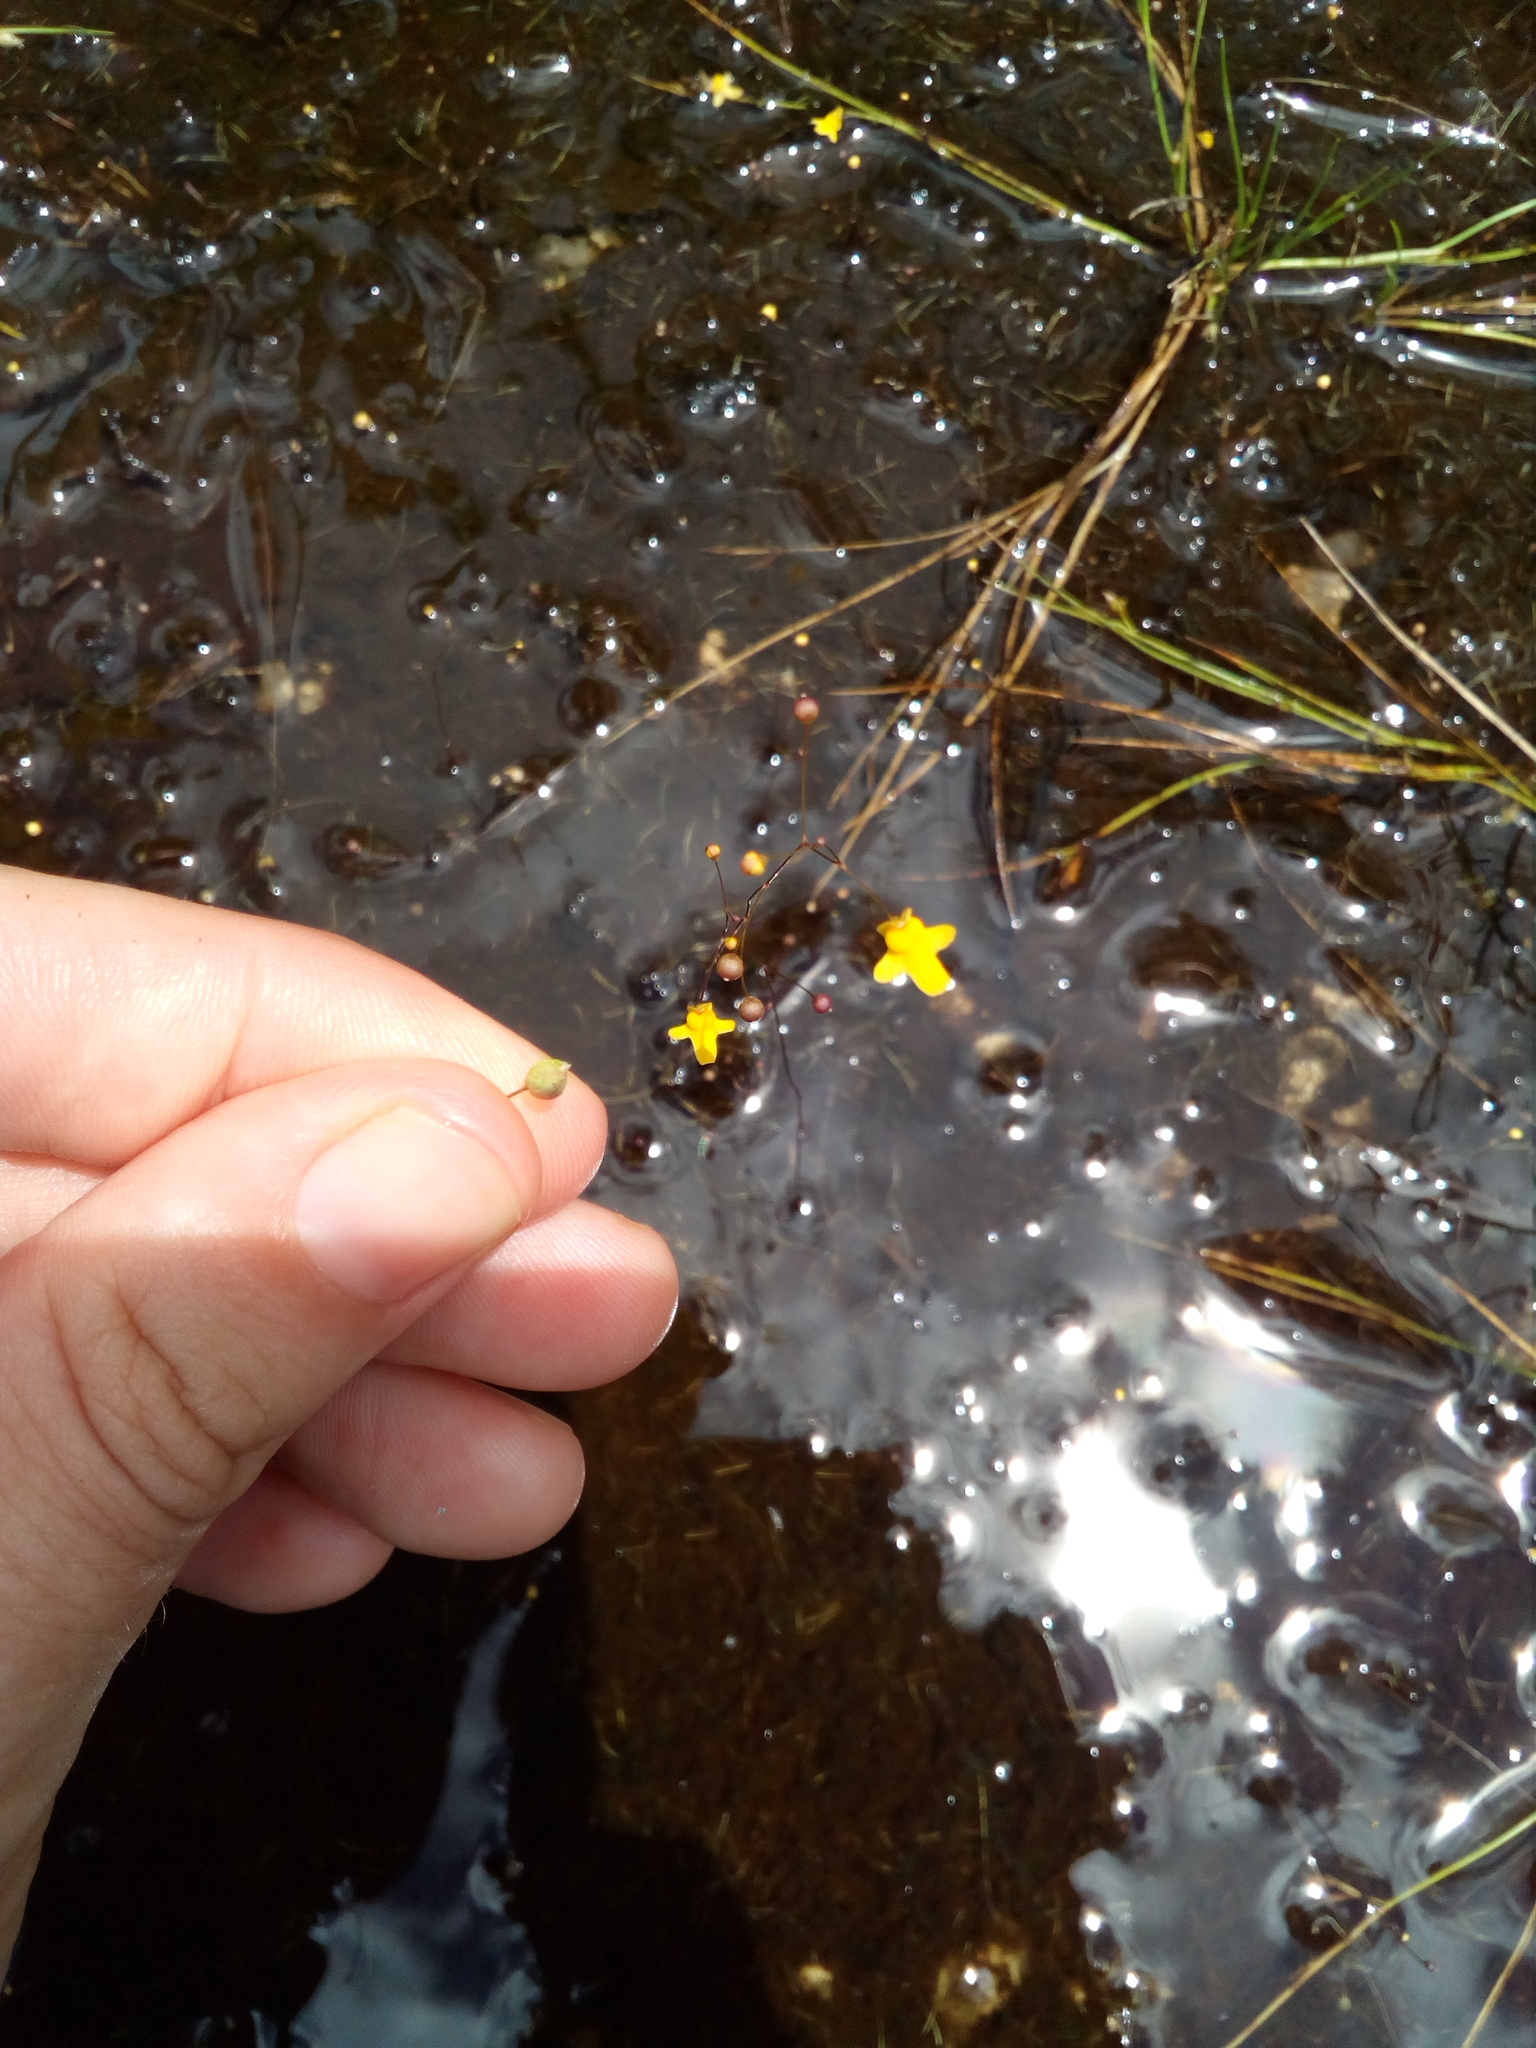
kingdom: Plantae
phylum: Tracheophyta
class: Magnoliopsida
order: Lamiales
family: Lentibulariaceae
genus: Utricularia
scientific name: Utricularia subulata
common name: Tiny bladderwort
